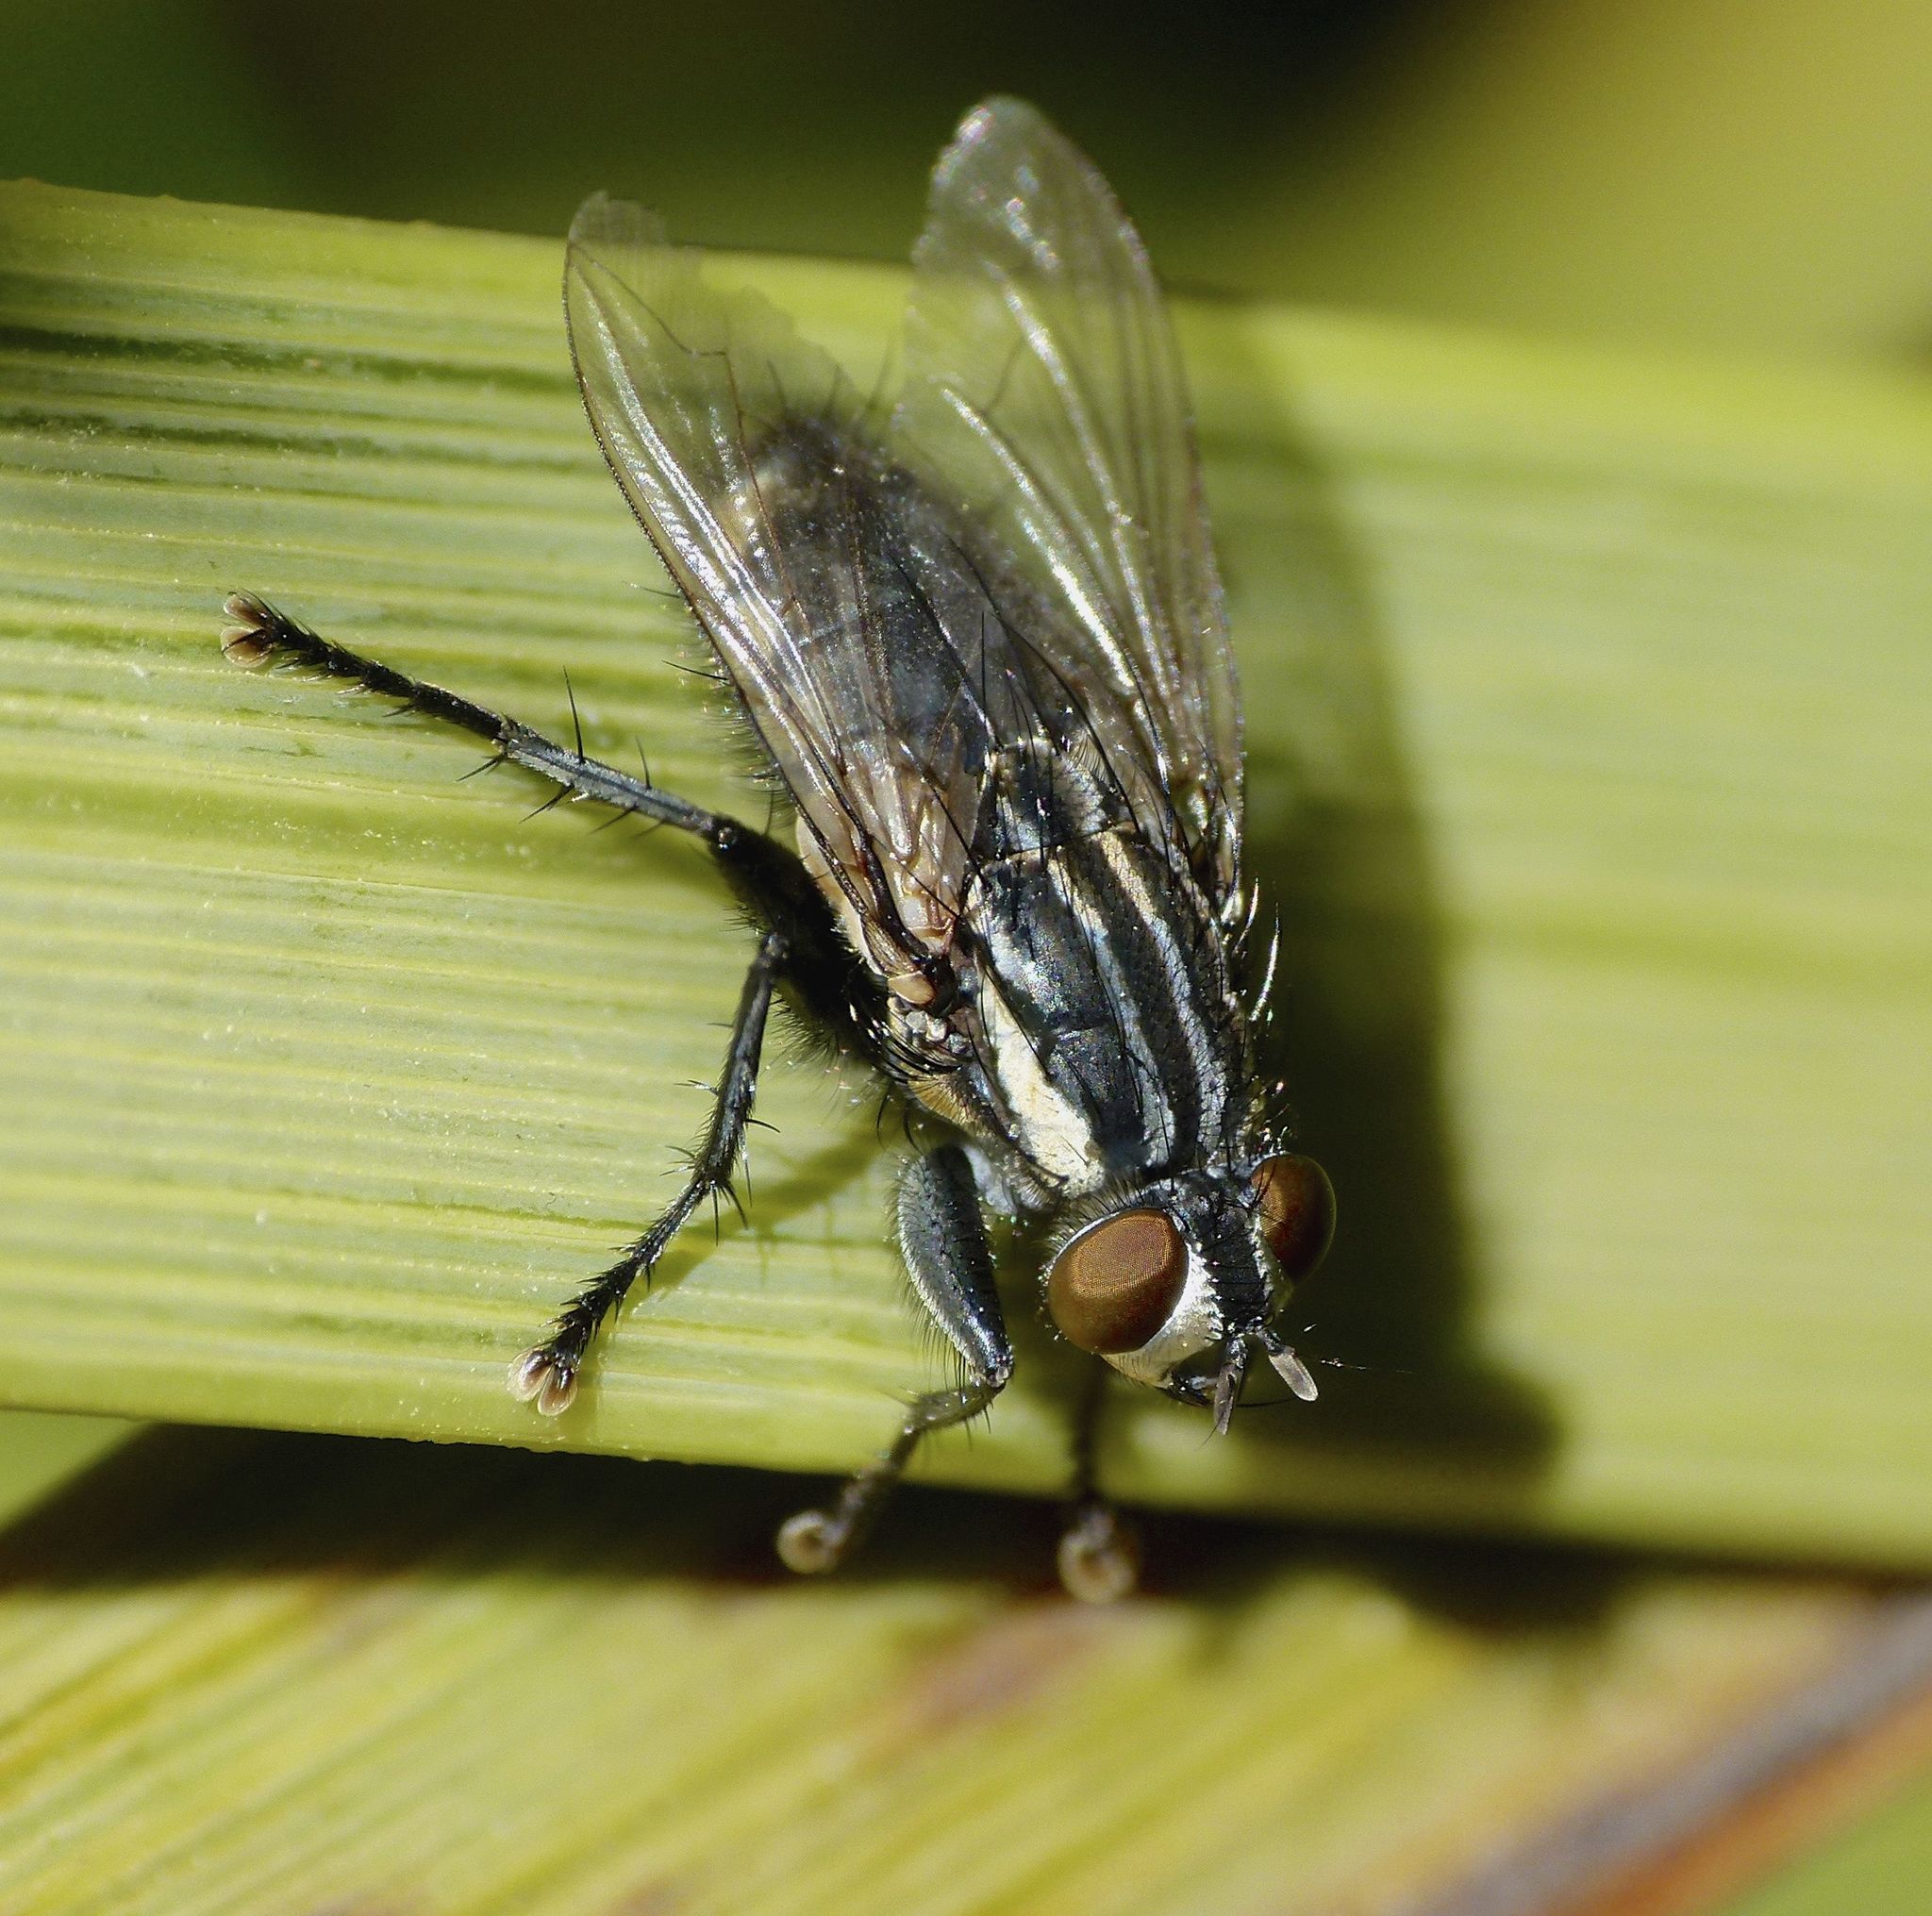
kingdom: Animalia
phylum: Arthropoda
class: Insecta
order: Diptera
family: Sarcophagidae
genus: Oxysarcodexia
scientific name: Oxysarcodexia varia
